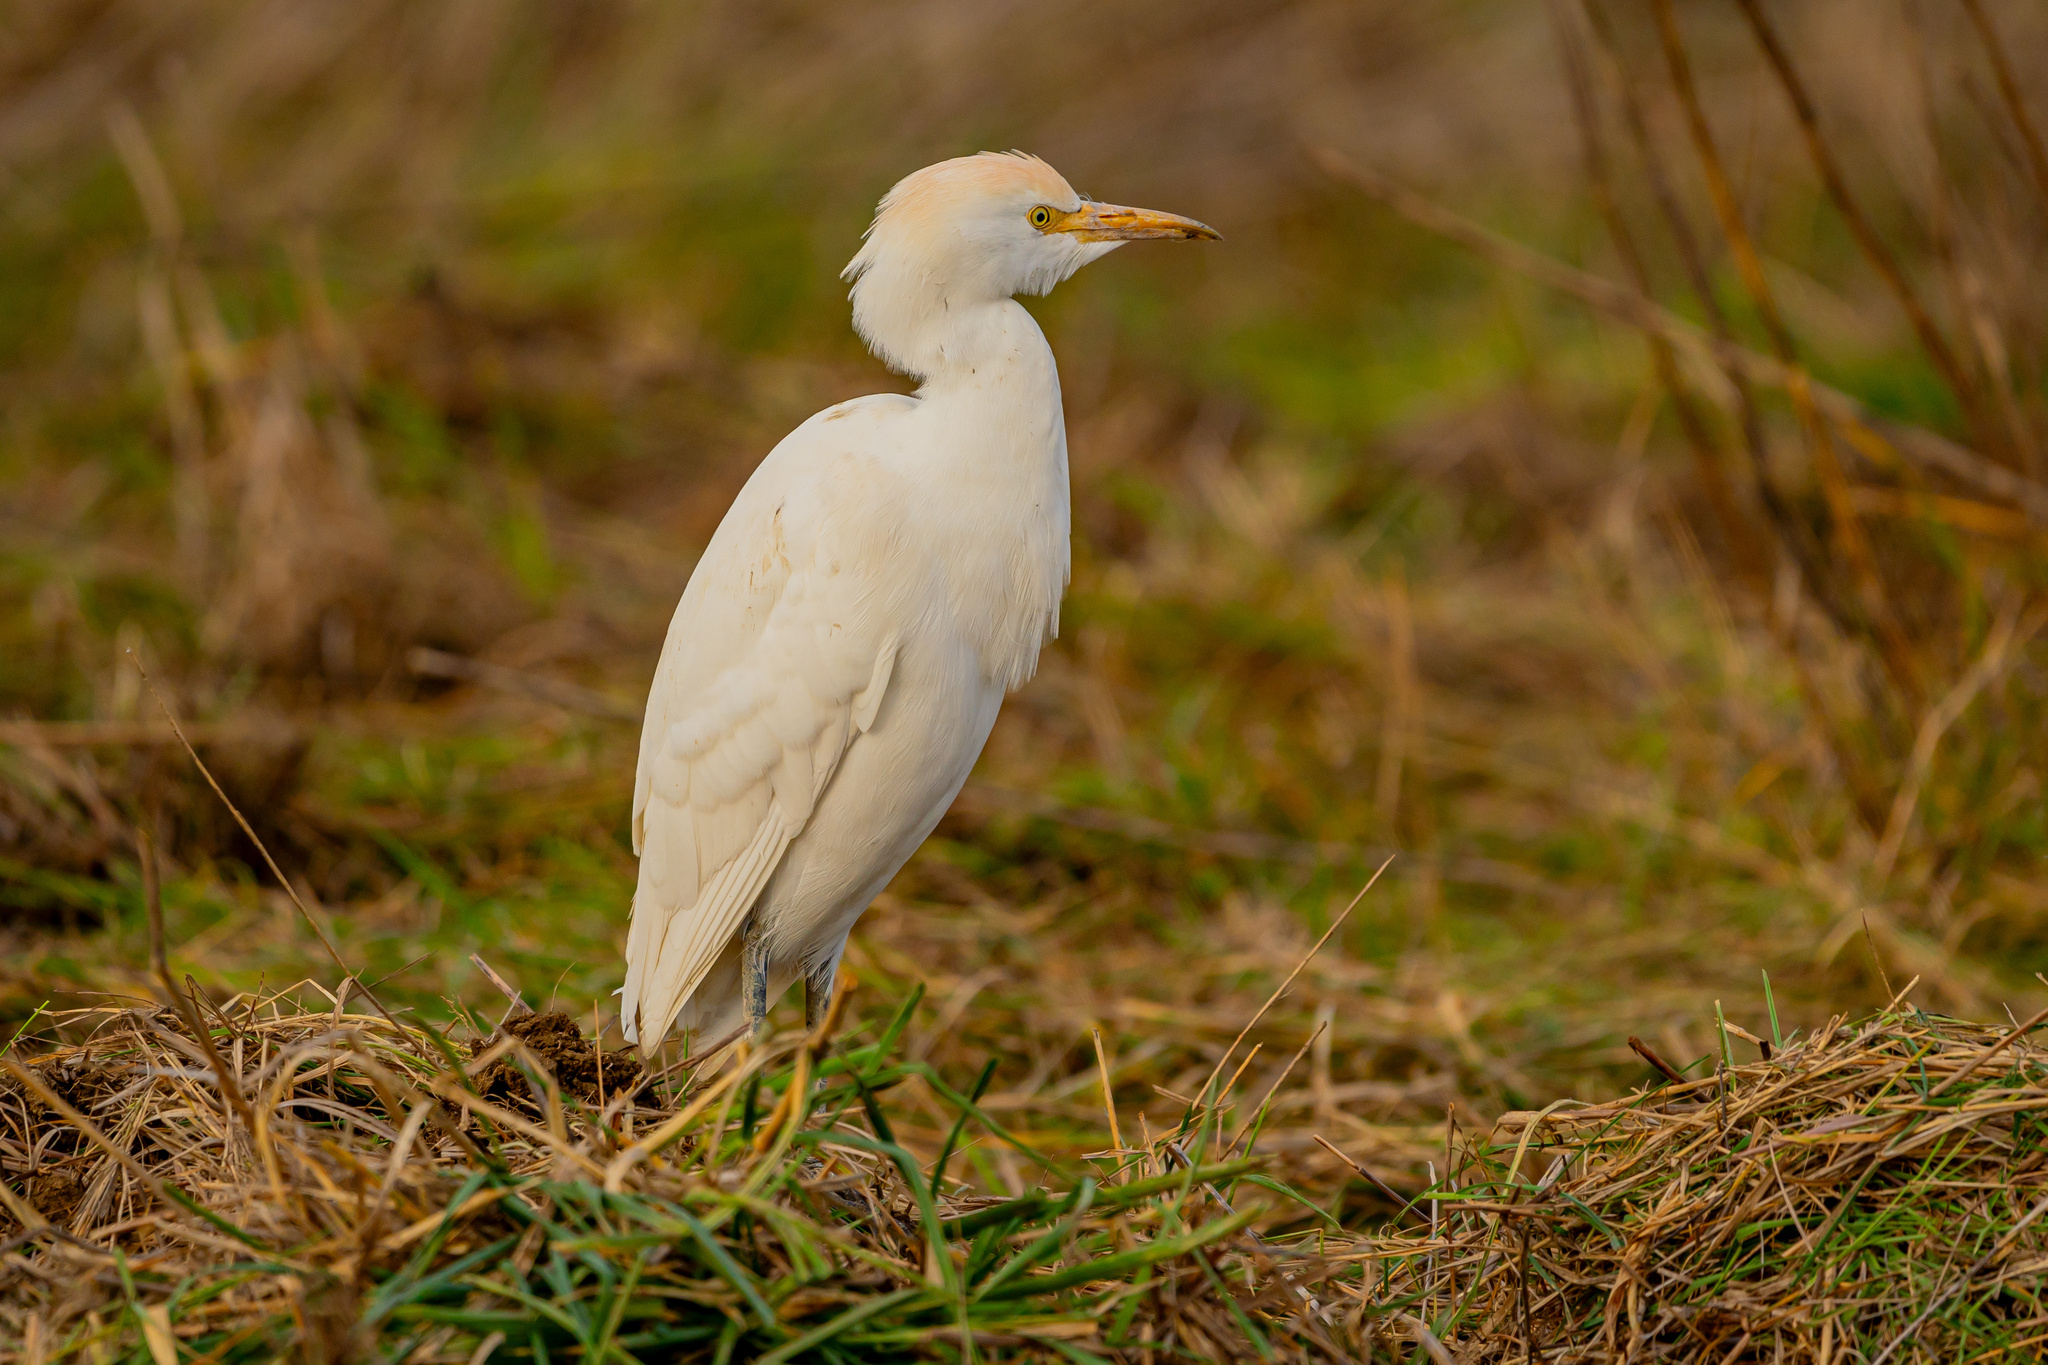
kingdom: Animalia
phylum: Chordata
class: Aves
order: Pelecaniformes
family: Ardeidae
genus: Bubulcus
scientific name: Bubulcus ibis
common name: Cattle egret
